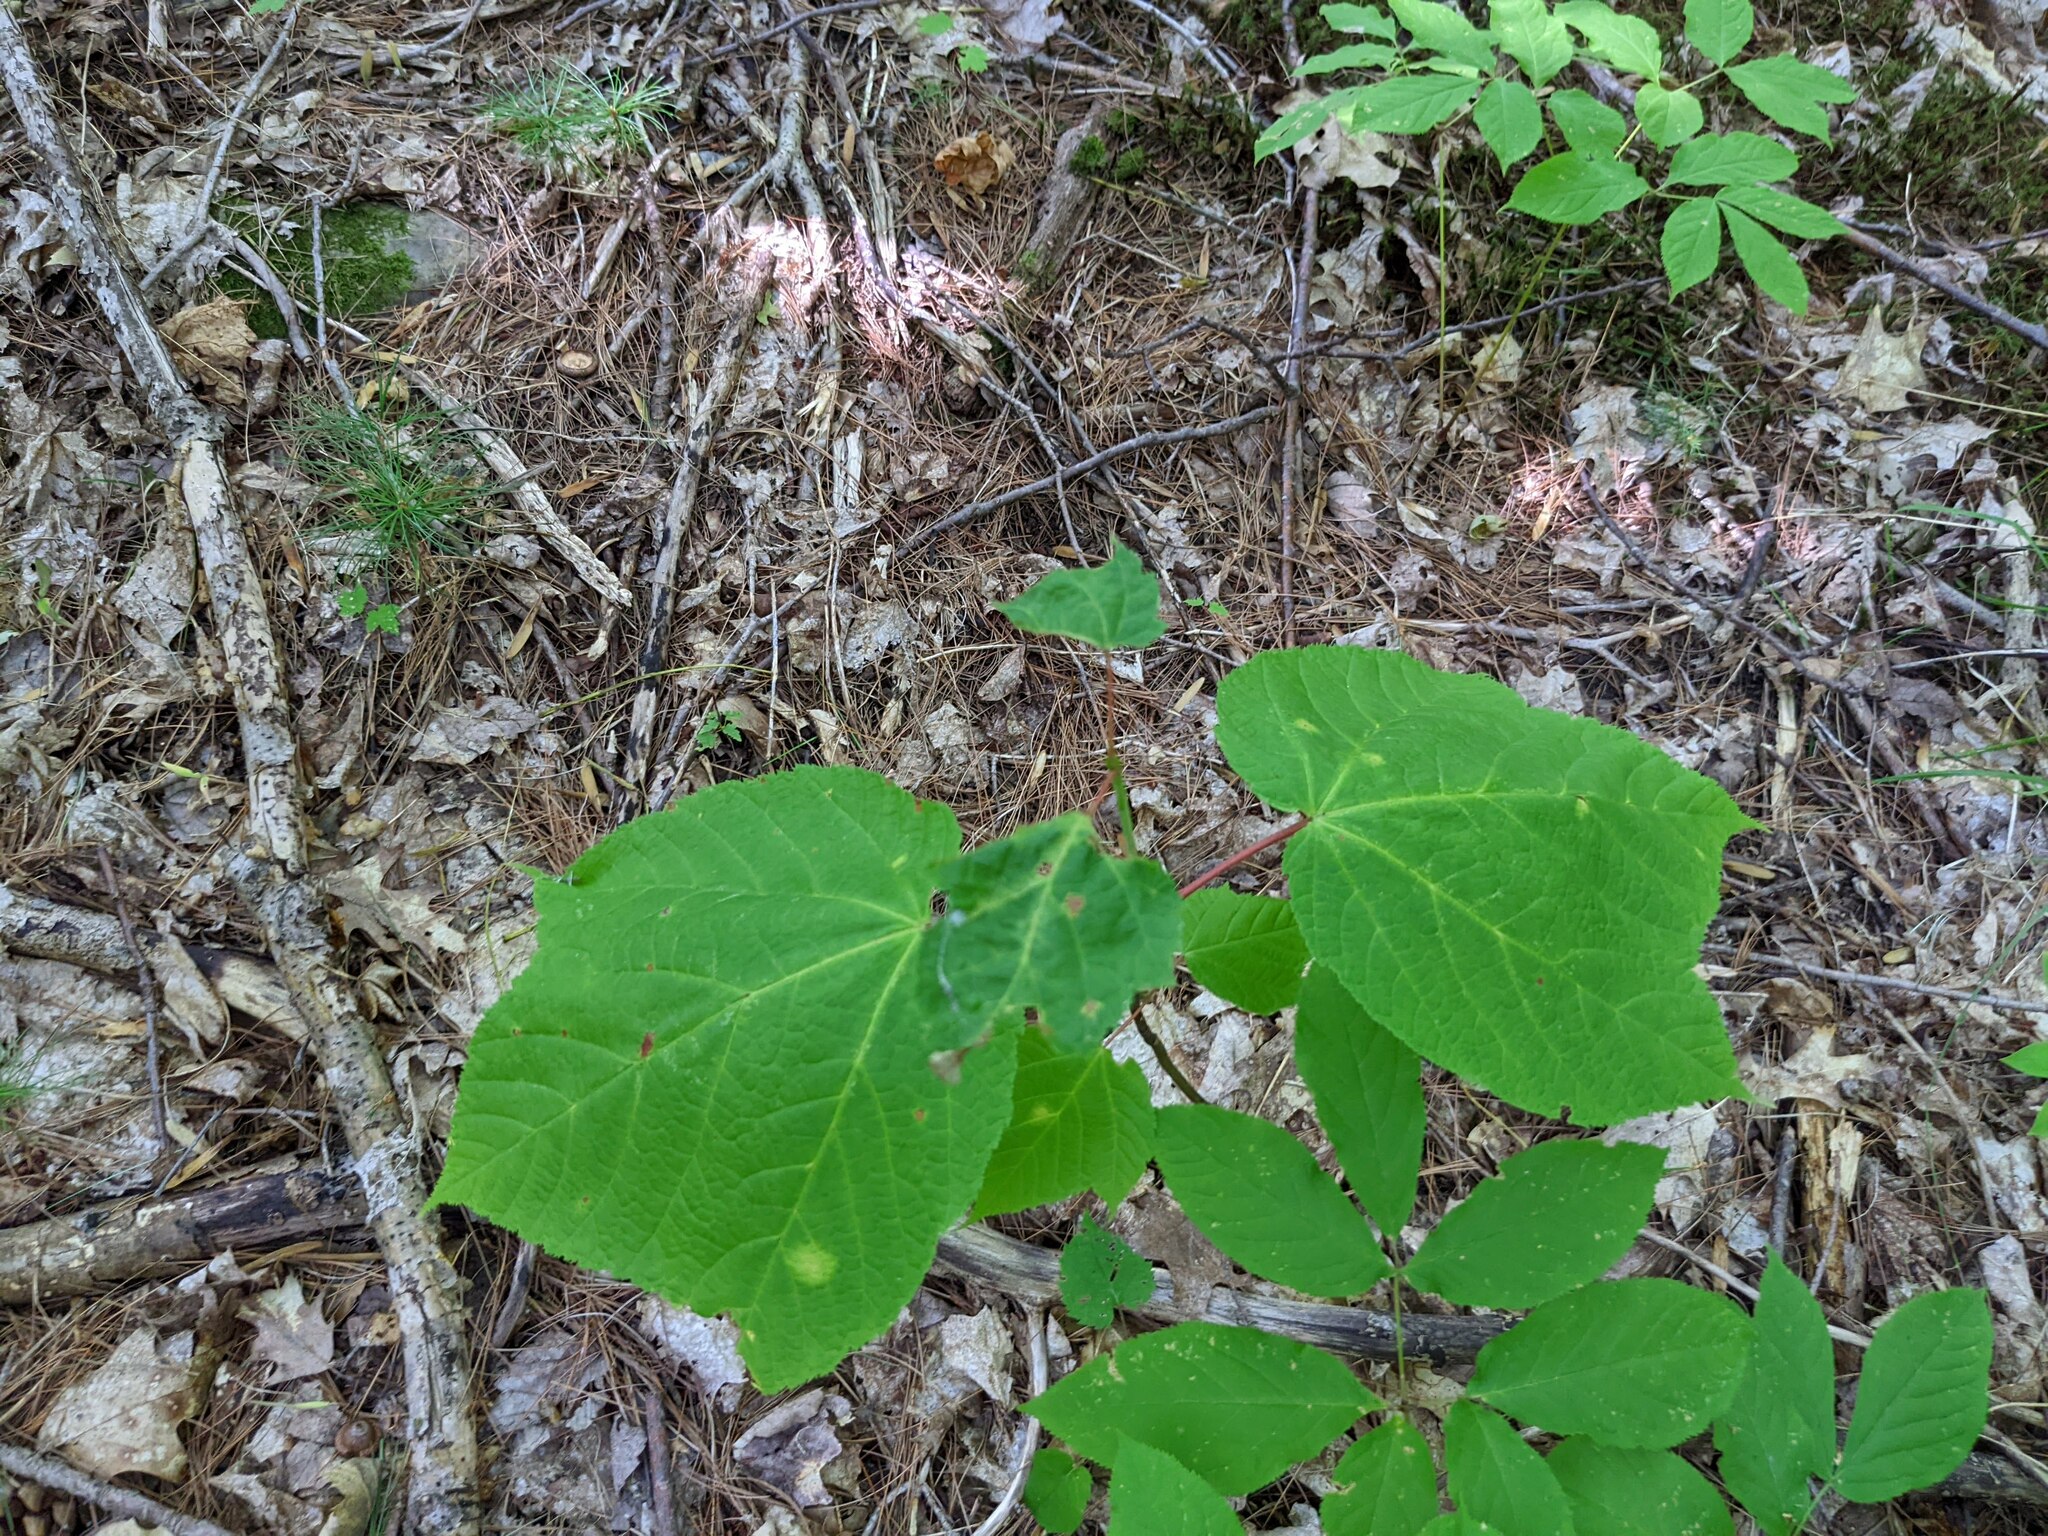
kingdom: Plantae
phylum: Tracheophyta
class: Magnoliopsida
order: Sapindales
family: Sapindaceae
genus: Acer
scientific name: Acer pensylvanicum
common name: Moosewood
